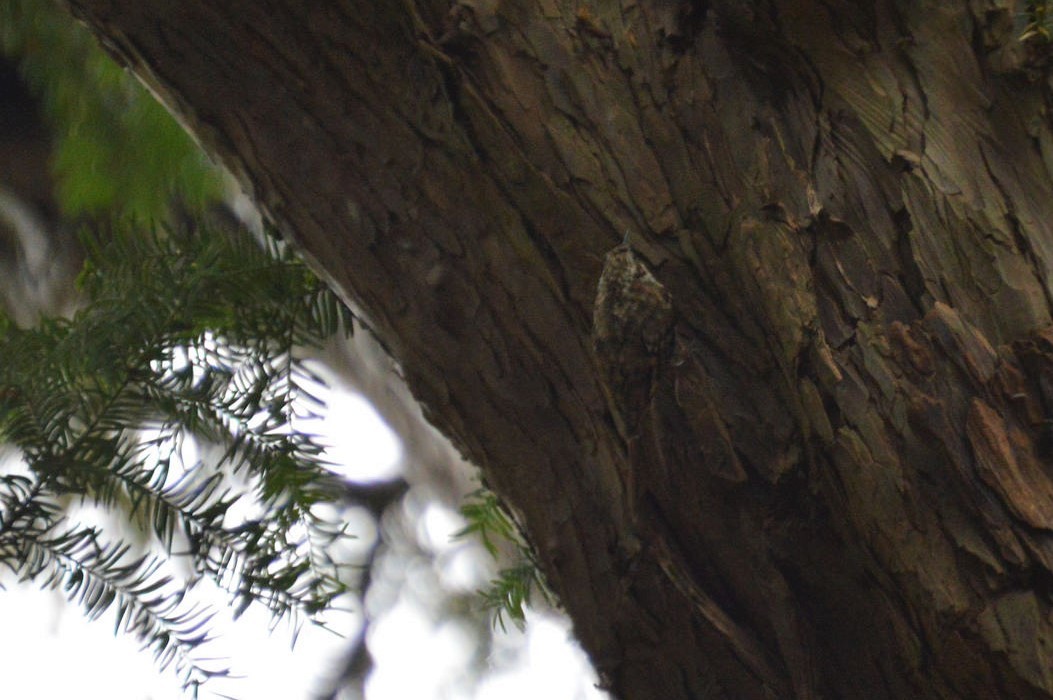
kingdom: Animalia
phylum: Chordata
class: Aves
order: Passeriformes
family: Certhiidae
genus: Certhia
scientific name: Certhia familiaris
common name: Eurasian treecreeper
